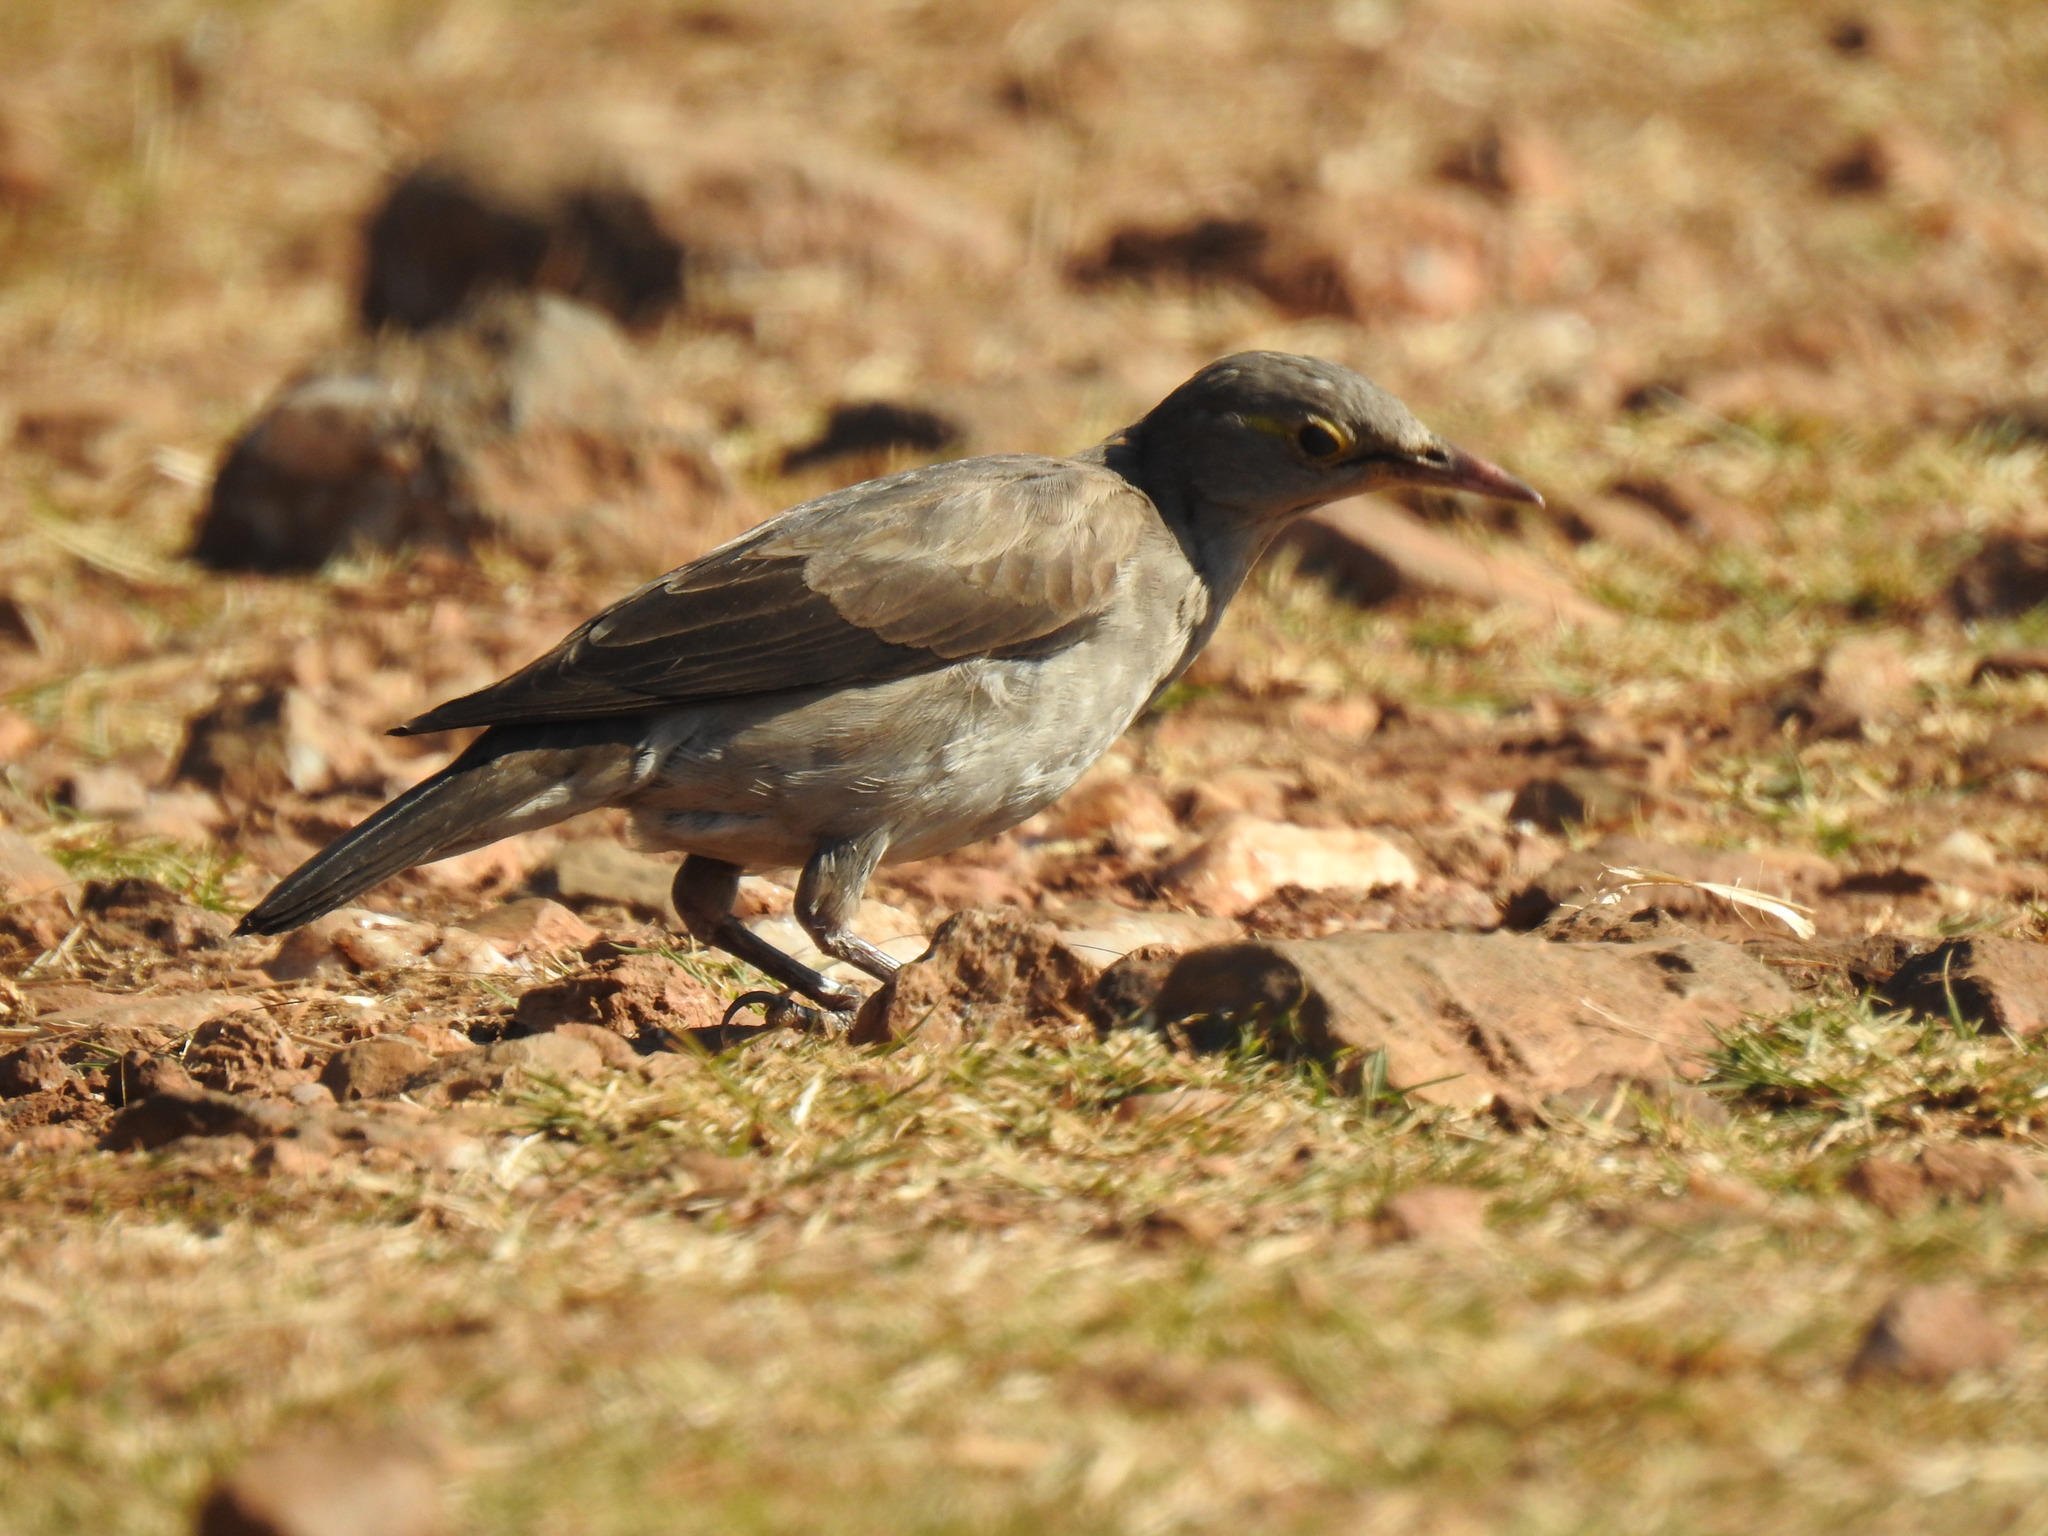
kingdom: Animalia
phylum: Chordata
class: Aves
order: Passeriformes
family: Sturnidae
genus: Creatophora
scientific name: Creatophora cinerea
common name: Wattled starling
